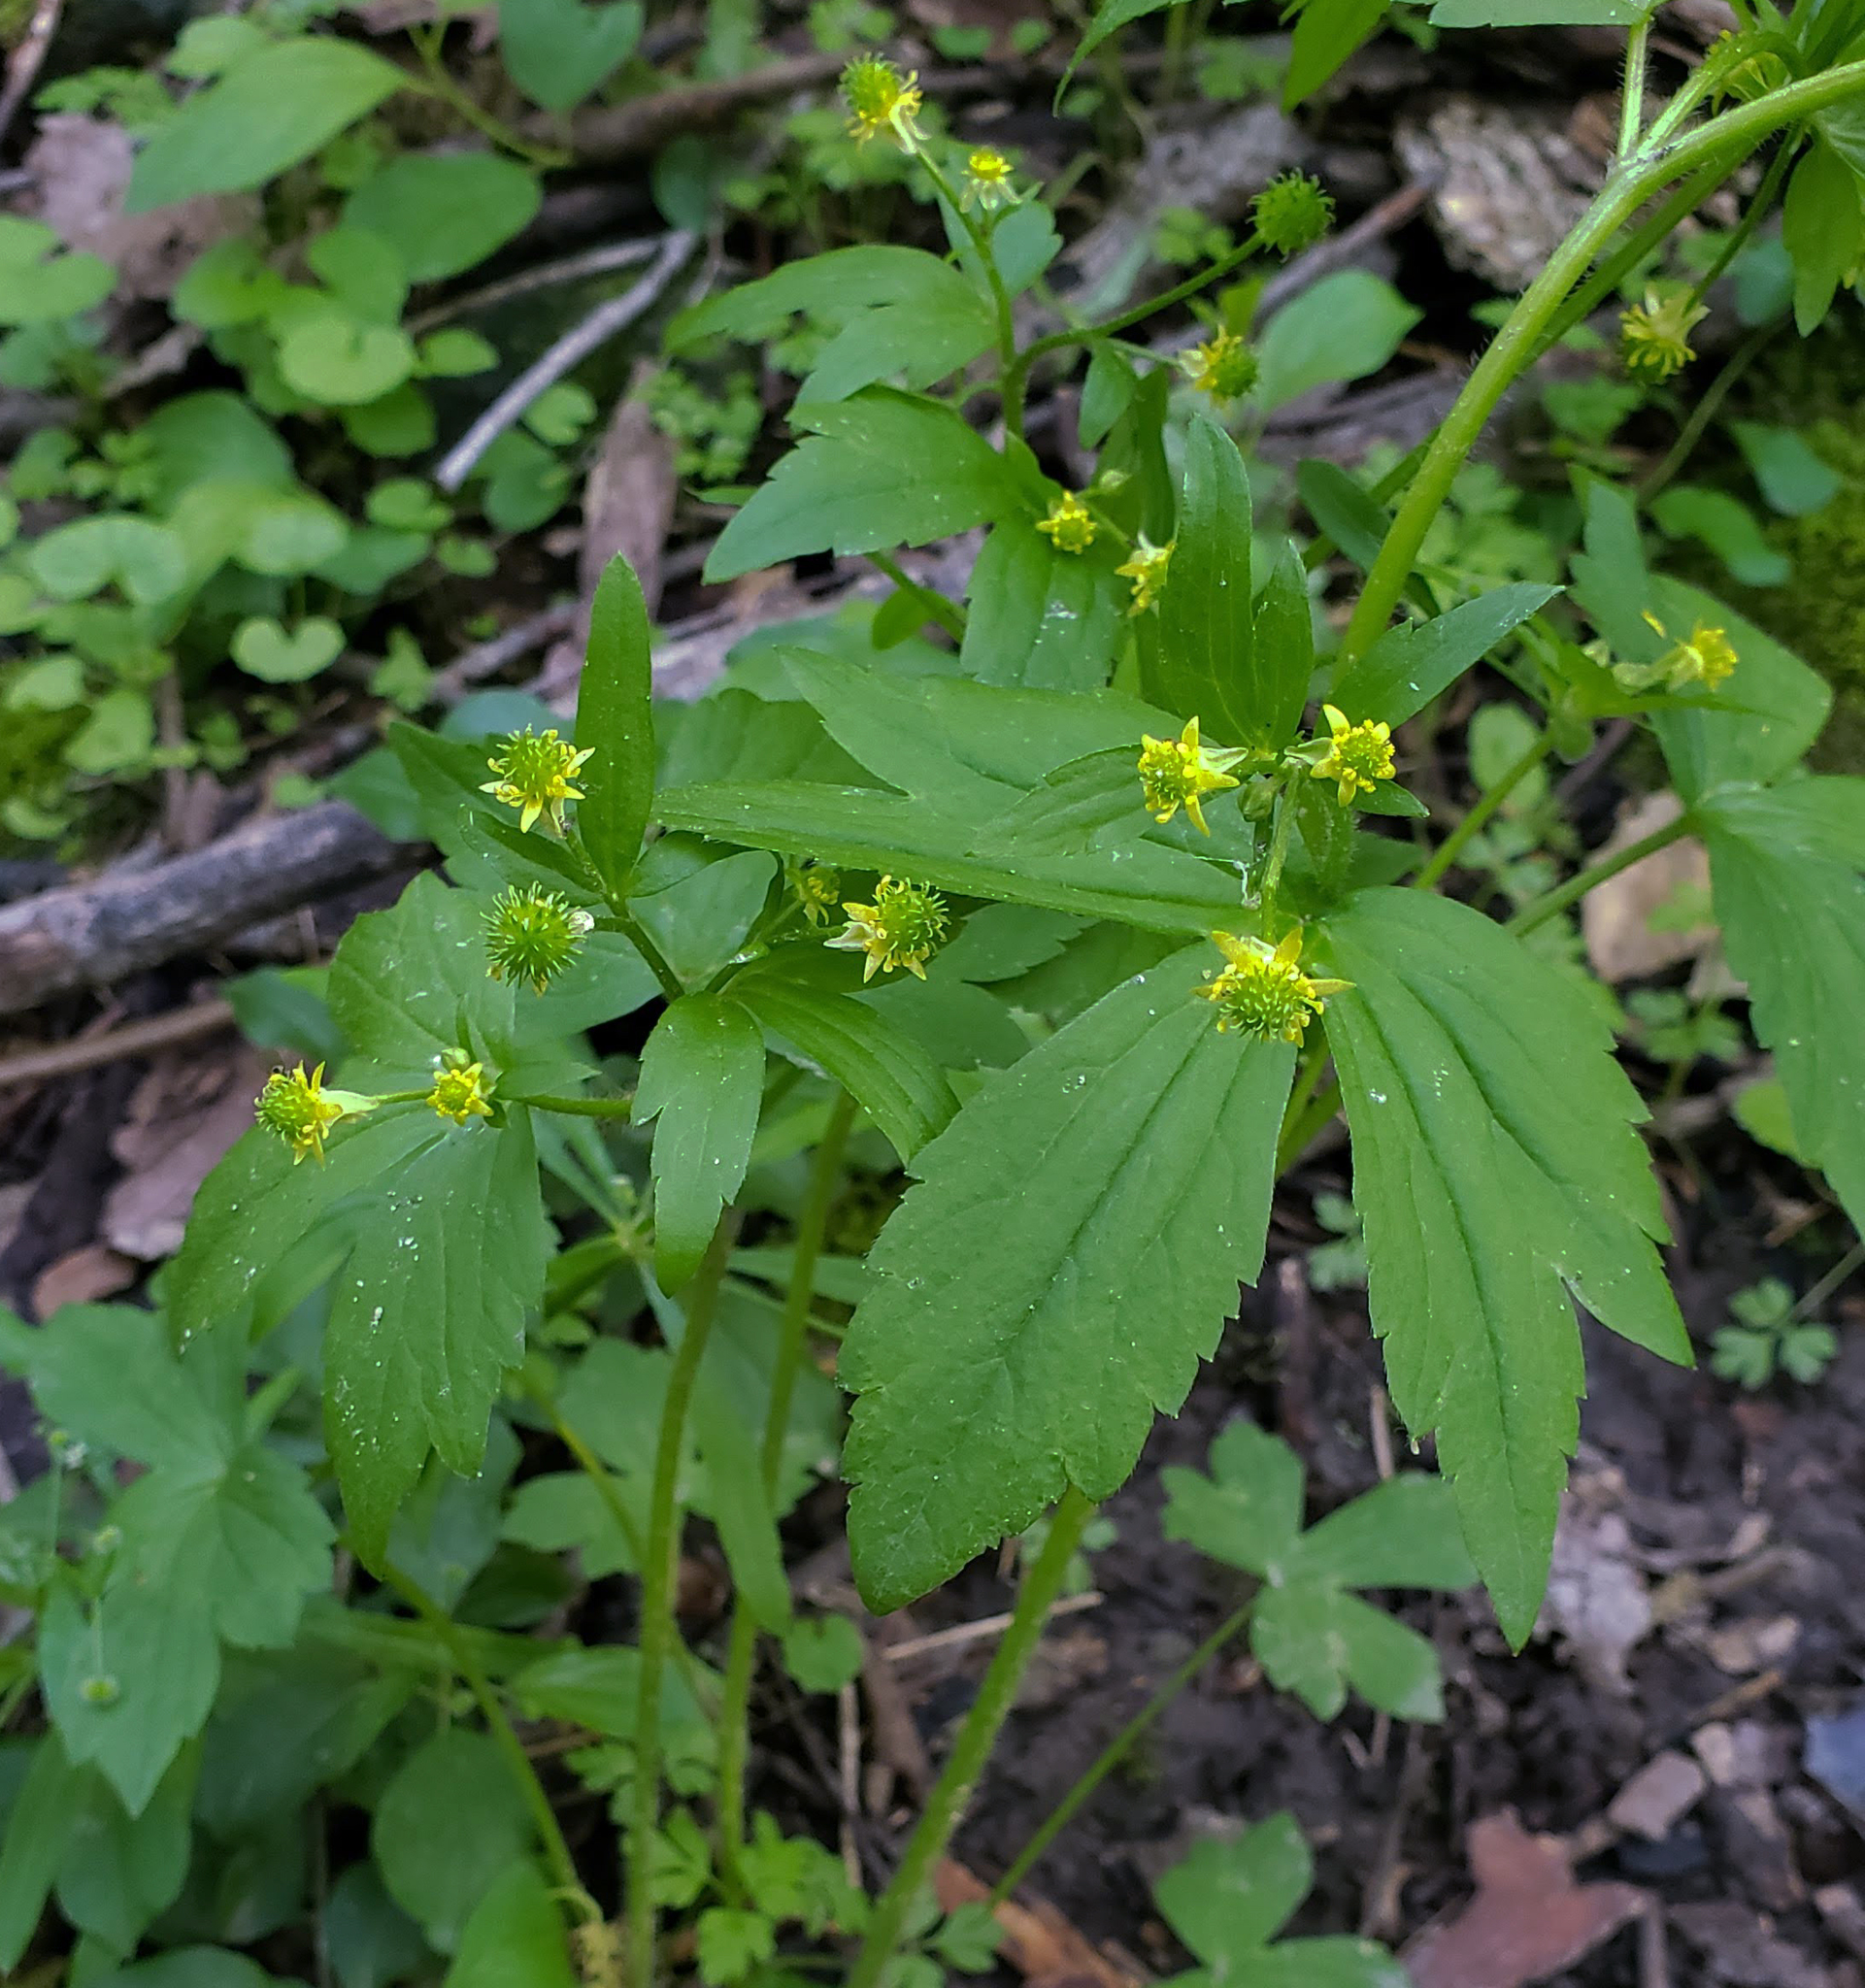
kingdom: Plantae
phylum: Tracheophyta
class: Magnoliopsida
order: Ranunculales
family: Ranunculaceae
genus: Ranunculus
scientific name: Ranunculus recurvatus
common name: Blisterwort
